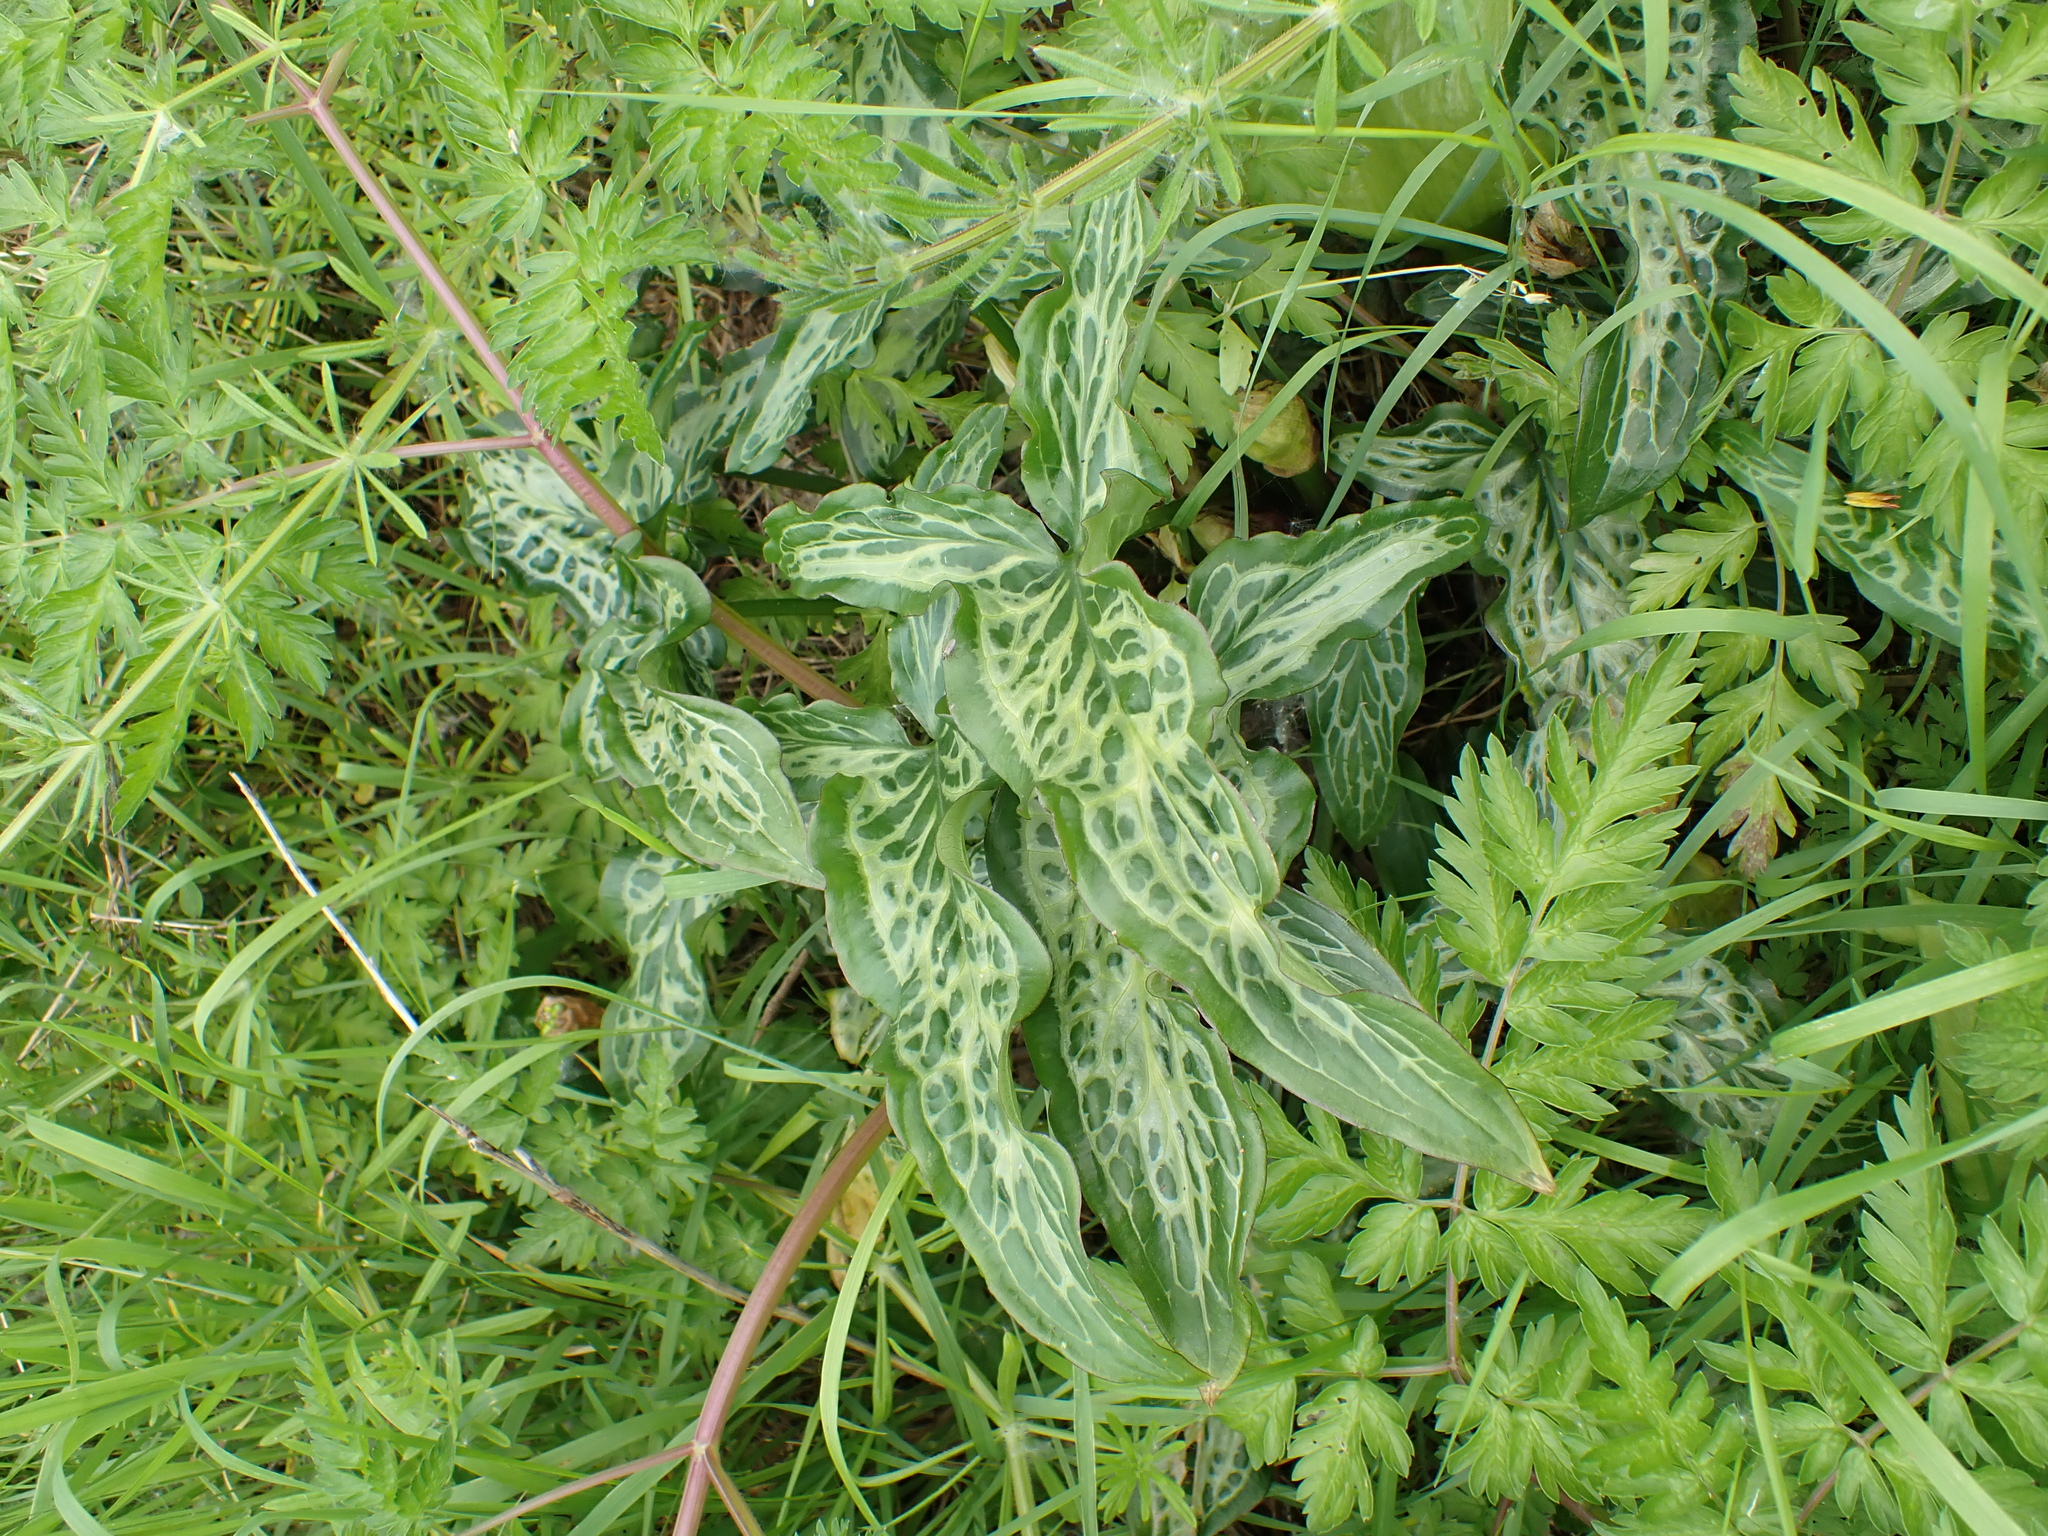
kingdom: Plantae
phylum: Tracheophyta
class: Liliopsida
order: Alismatales
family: Araceae
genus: Arum
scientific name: Arum italicum
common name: Italian lords-and-ladies
